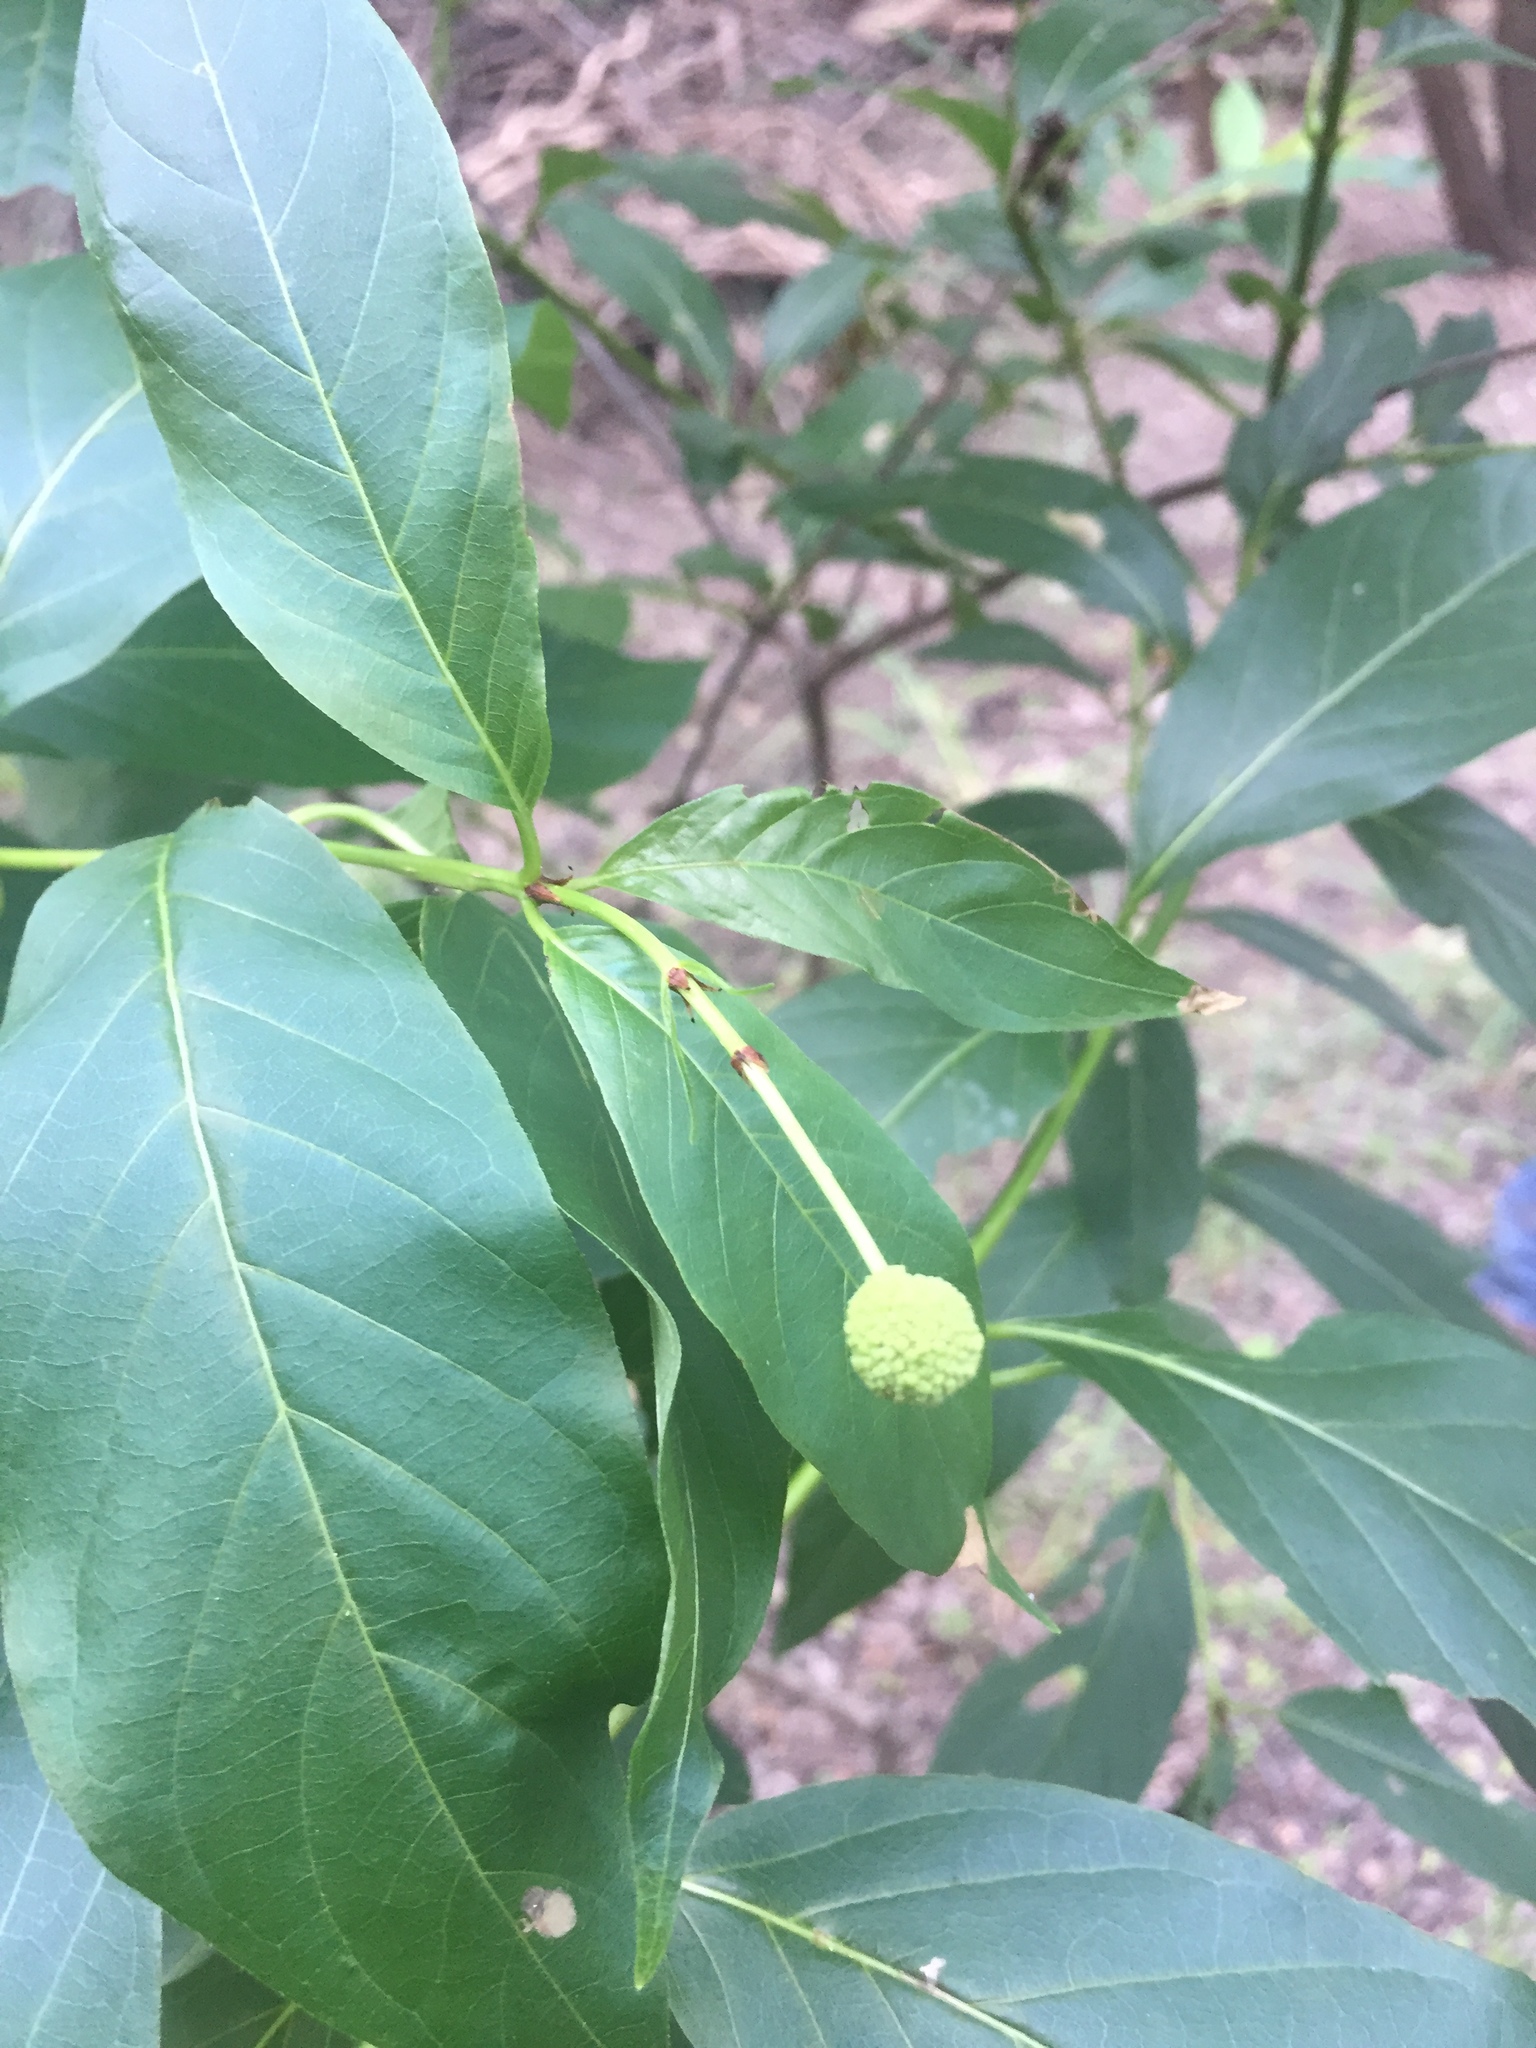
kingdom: Plantae
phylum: Tracheophyta
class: Magnoliopsida
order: Gentianales
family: Rubiaceae
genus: Cephalanthus
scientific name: Cephalanthus occidentalis
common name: Button-willow
